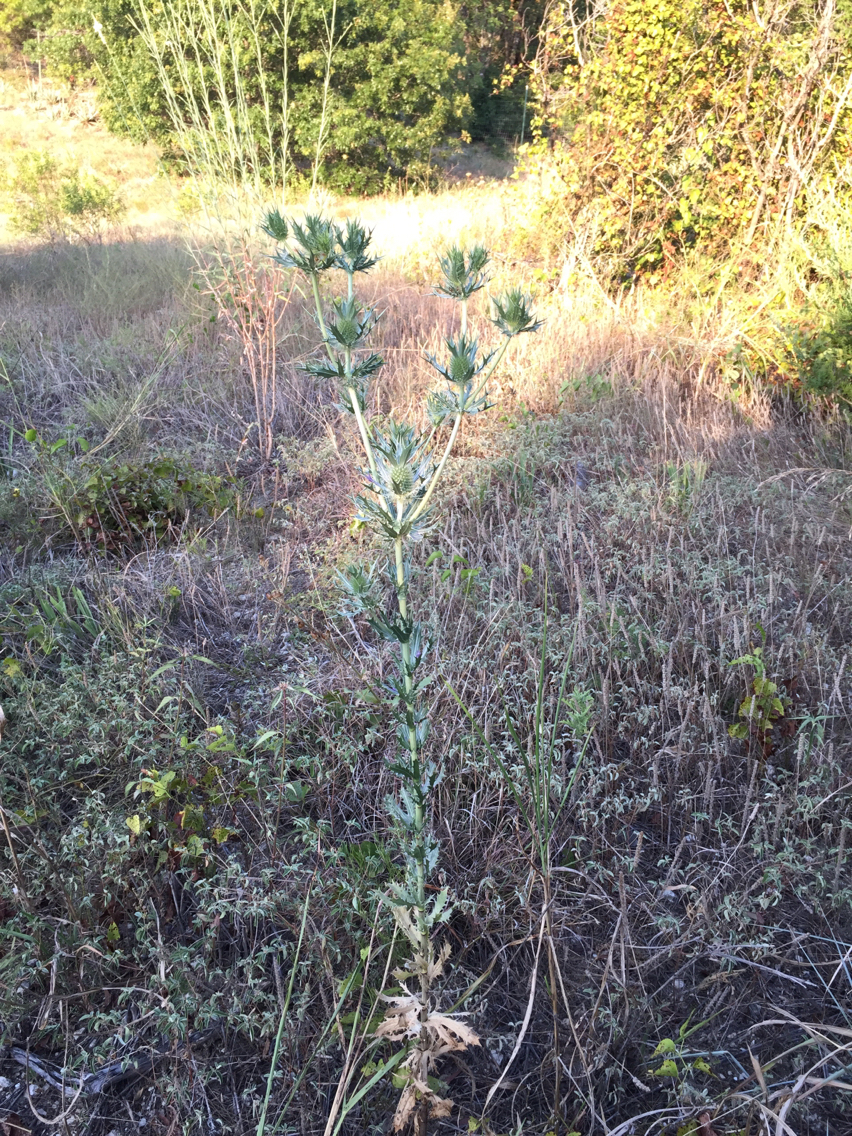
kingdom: Plantae
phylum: Tracheophyta
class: Magnoliopsida
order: Apiales
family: Apiaceae
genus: Eryngium
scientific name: Eryngium leavenworthii
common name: Leavenworth's eryngo
